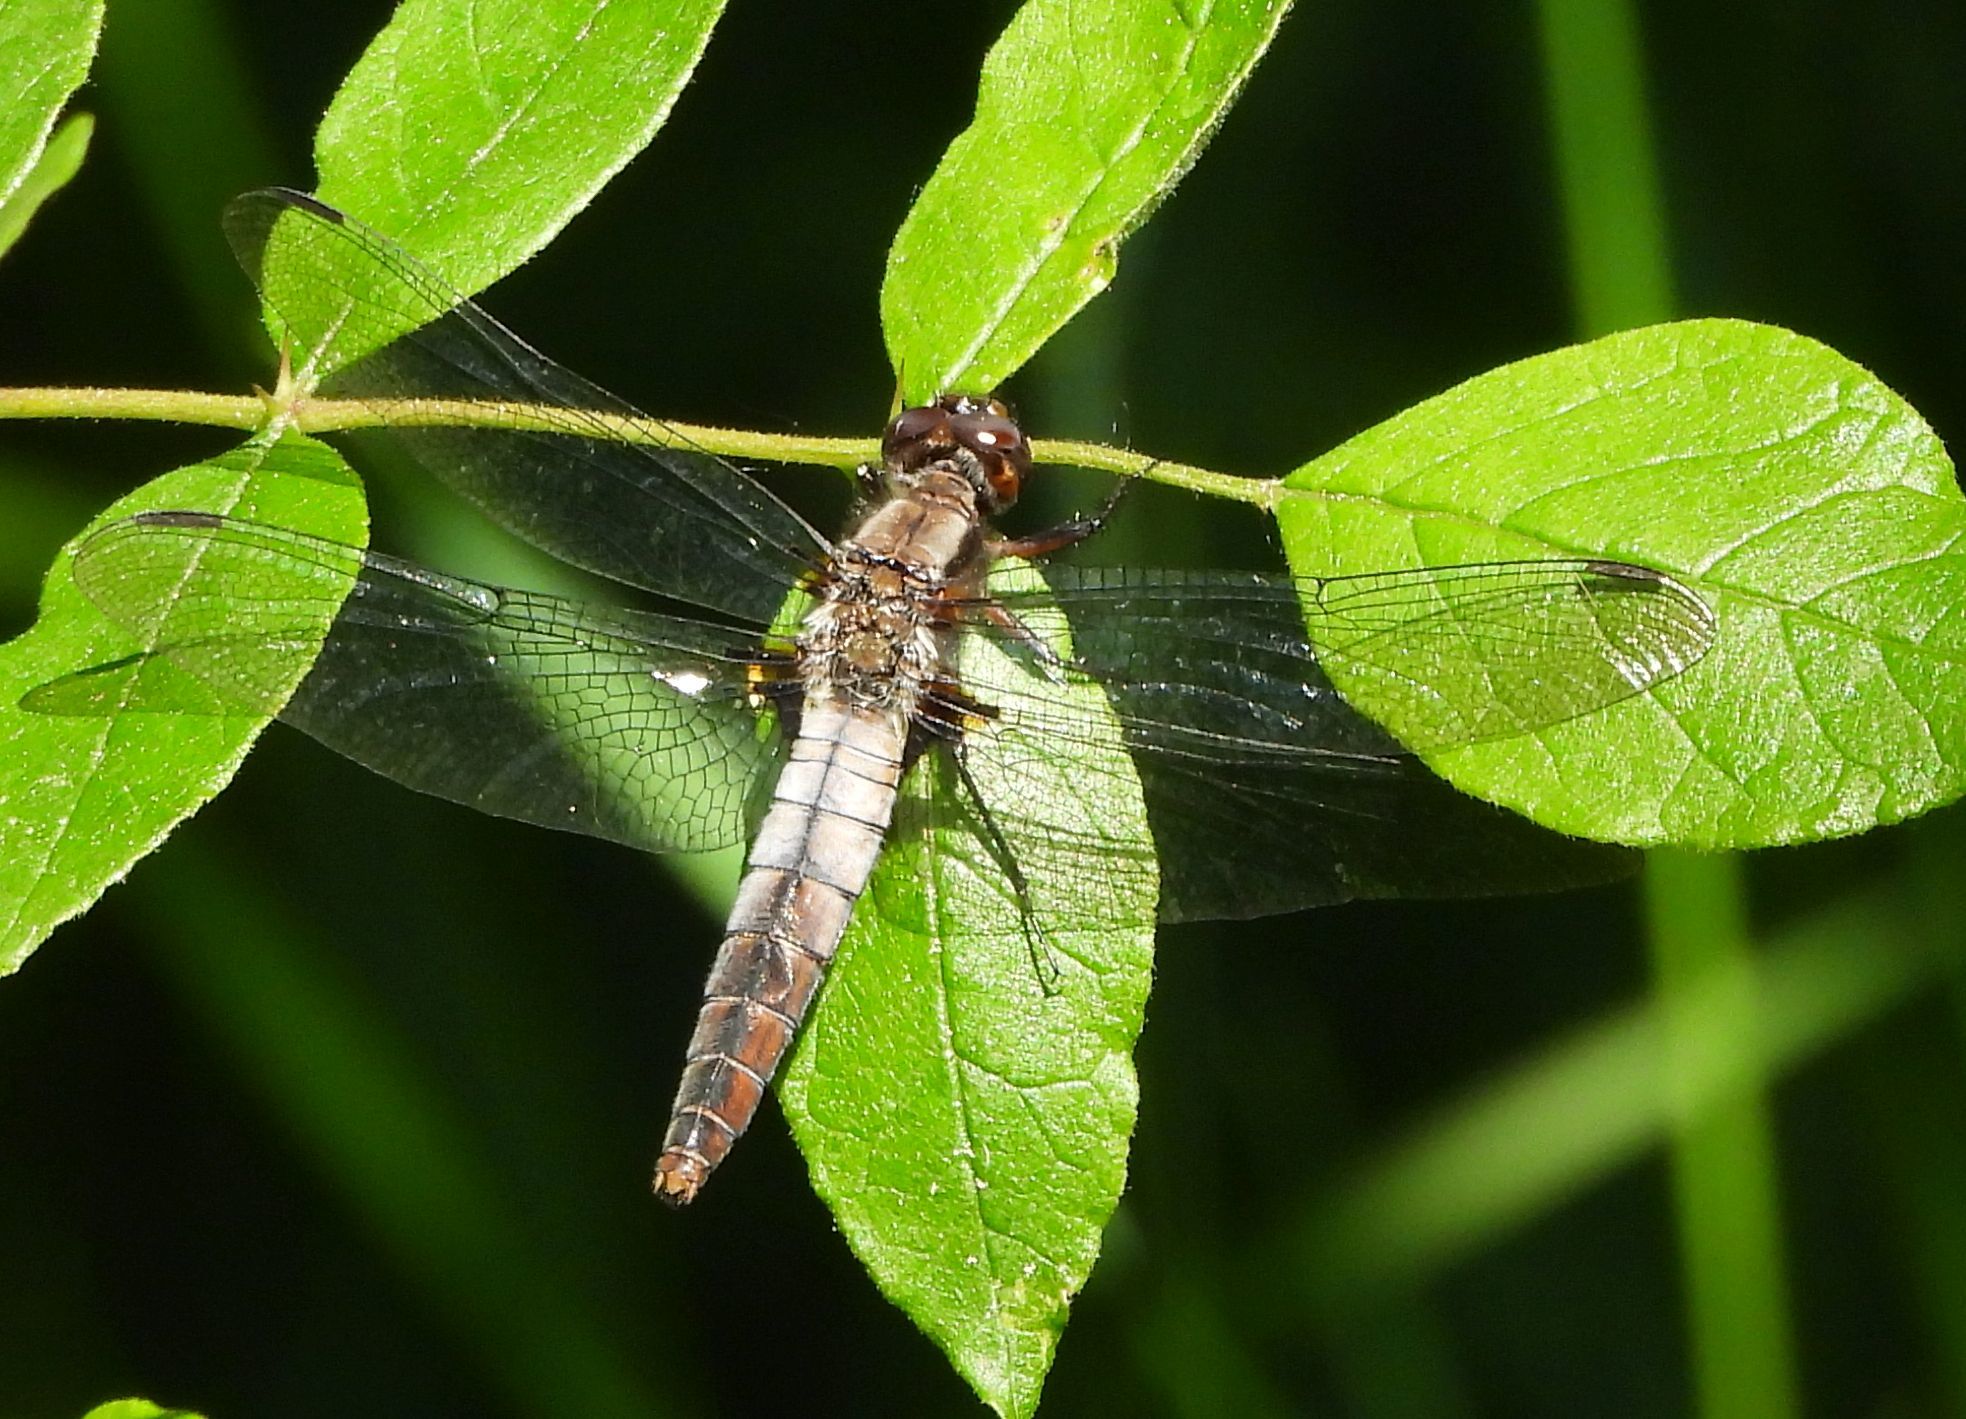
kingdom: Animalia
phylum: Arthropoda
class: Insecta
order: Odonata
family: Libellulidae
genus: Ladona
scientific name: Ladona julia
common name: Chalk-fronted corporal
